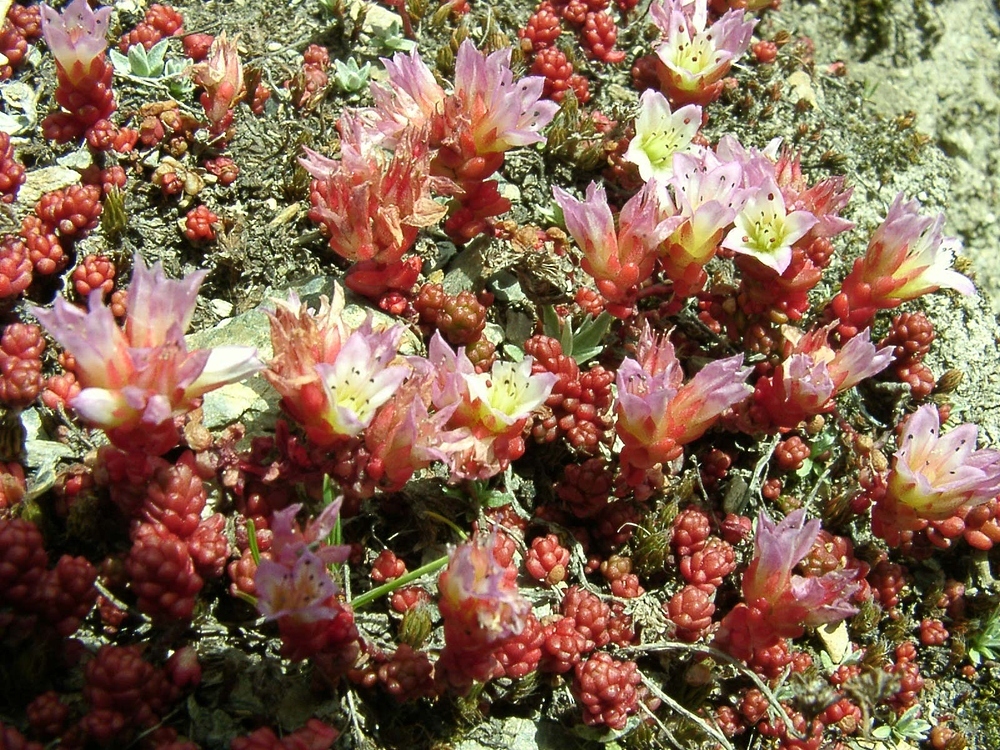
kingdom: Plantae
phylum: Tracheophyta
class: Magnoliopsida
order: Saxifragales
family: Crassulaceae
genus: Sedum
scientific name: Sedum candollei
